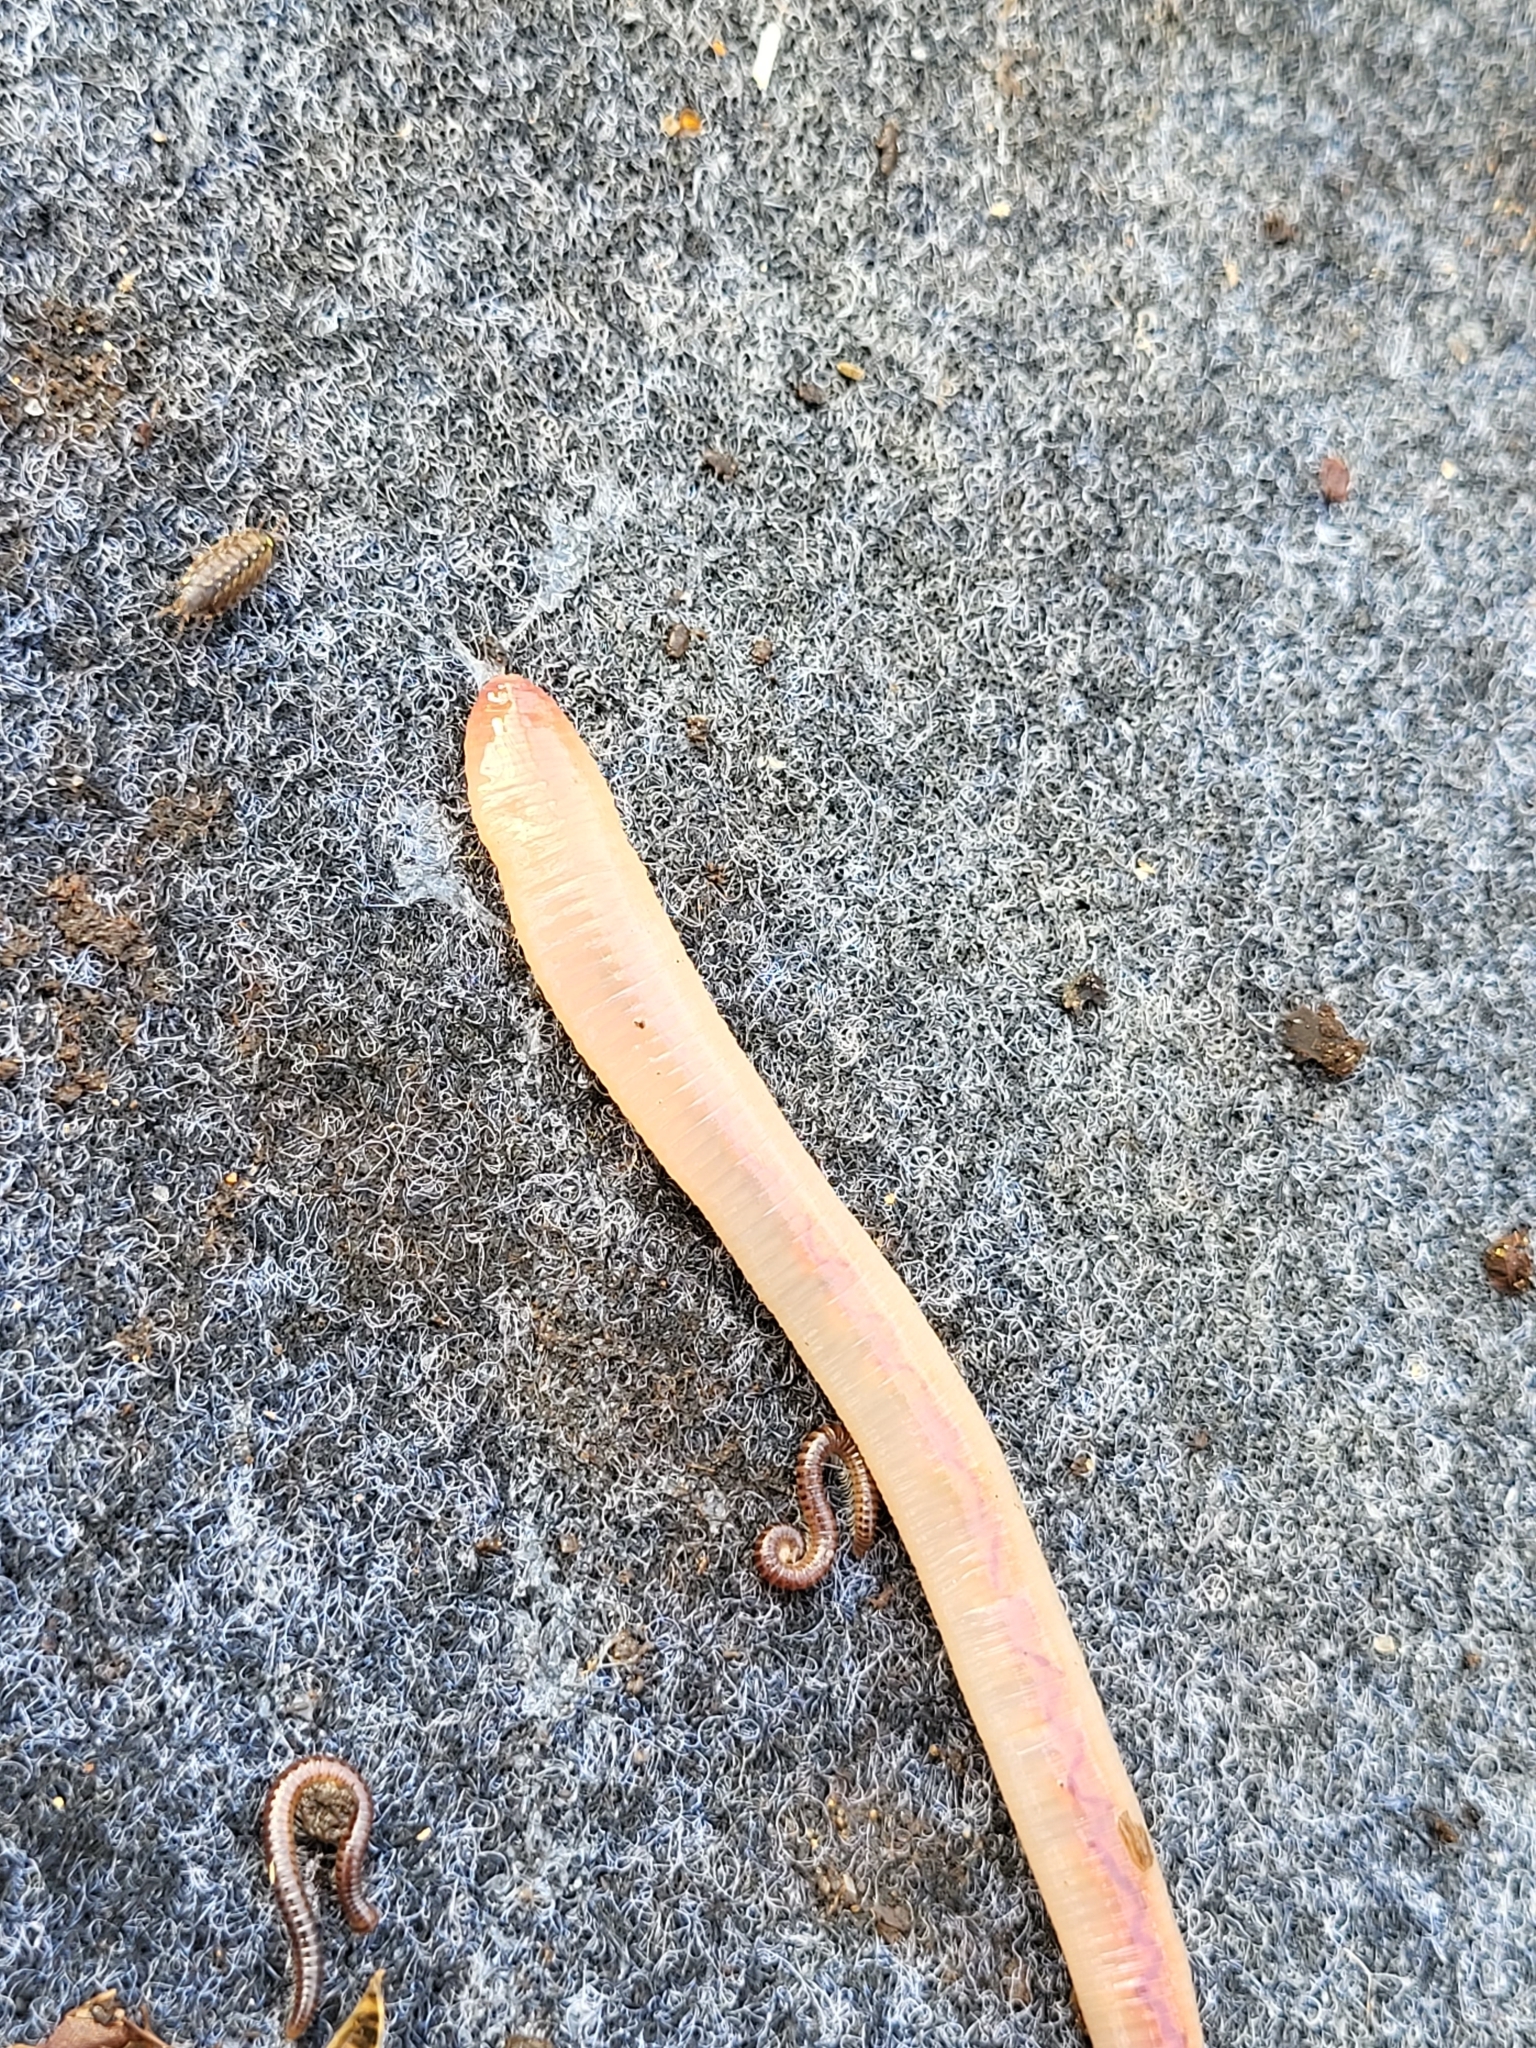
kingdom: Animalia
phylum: Annelida
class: Clitellata
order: Crassiclitellata
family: Lumbricidae
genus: Lumbricus
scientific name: Lumbricus terrestris
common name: Common earthworm
